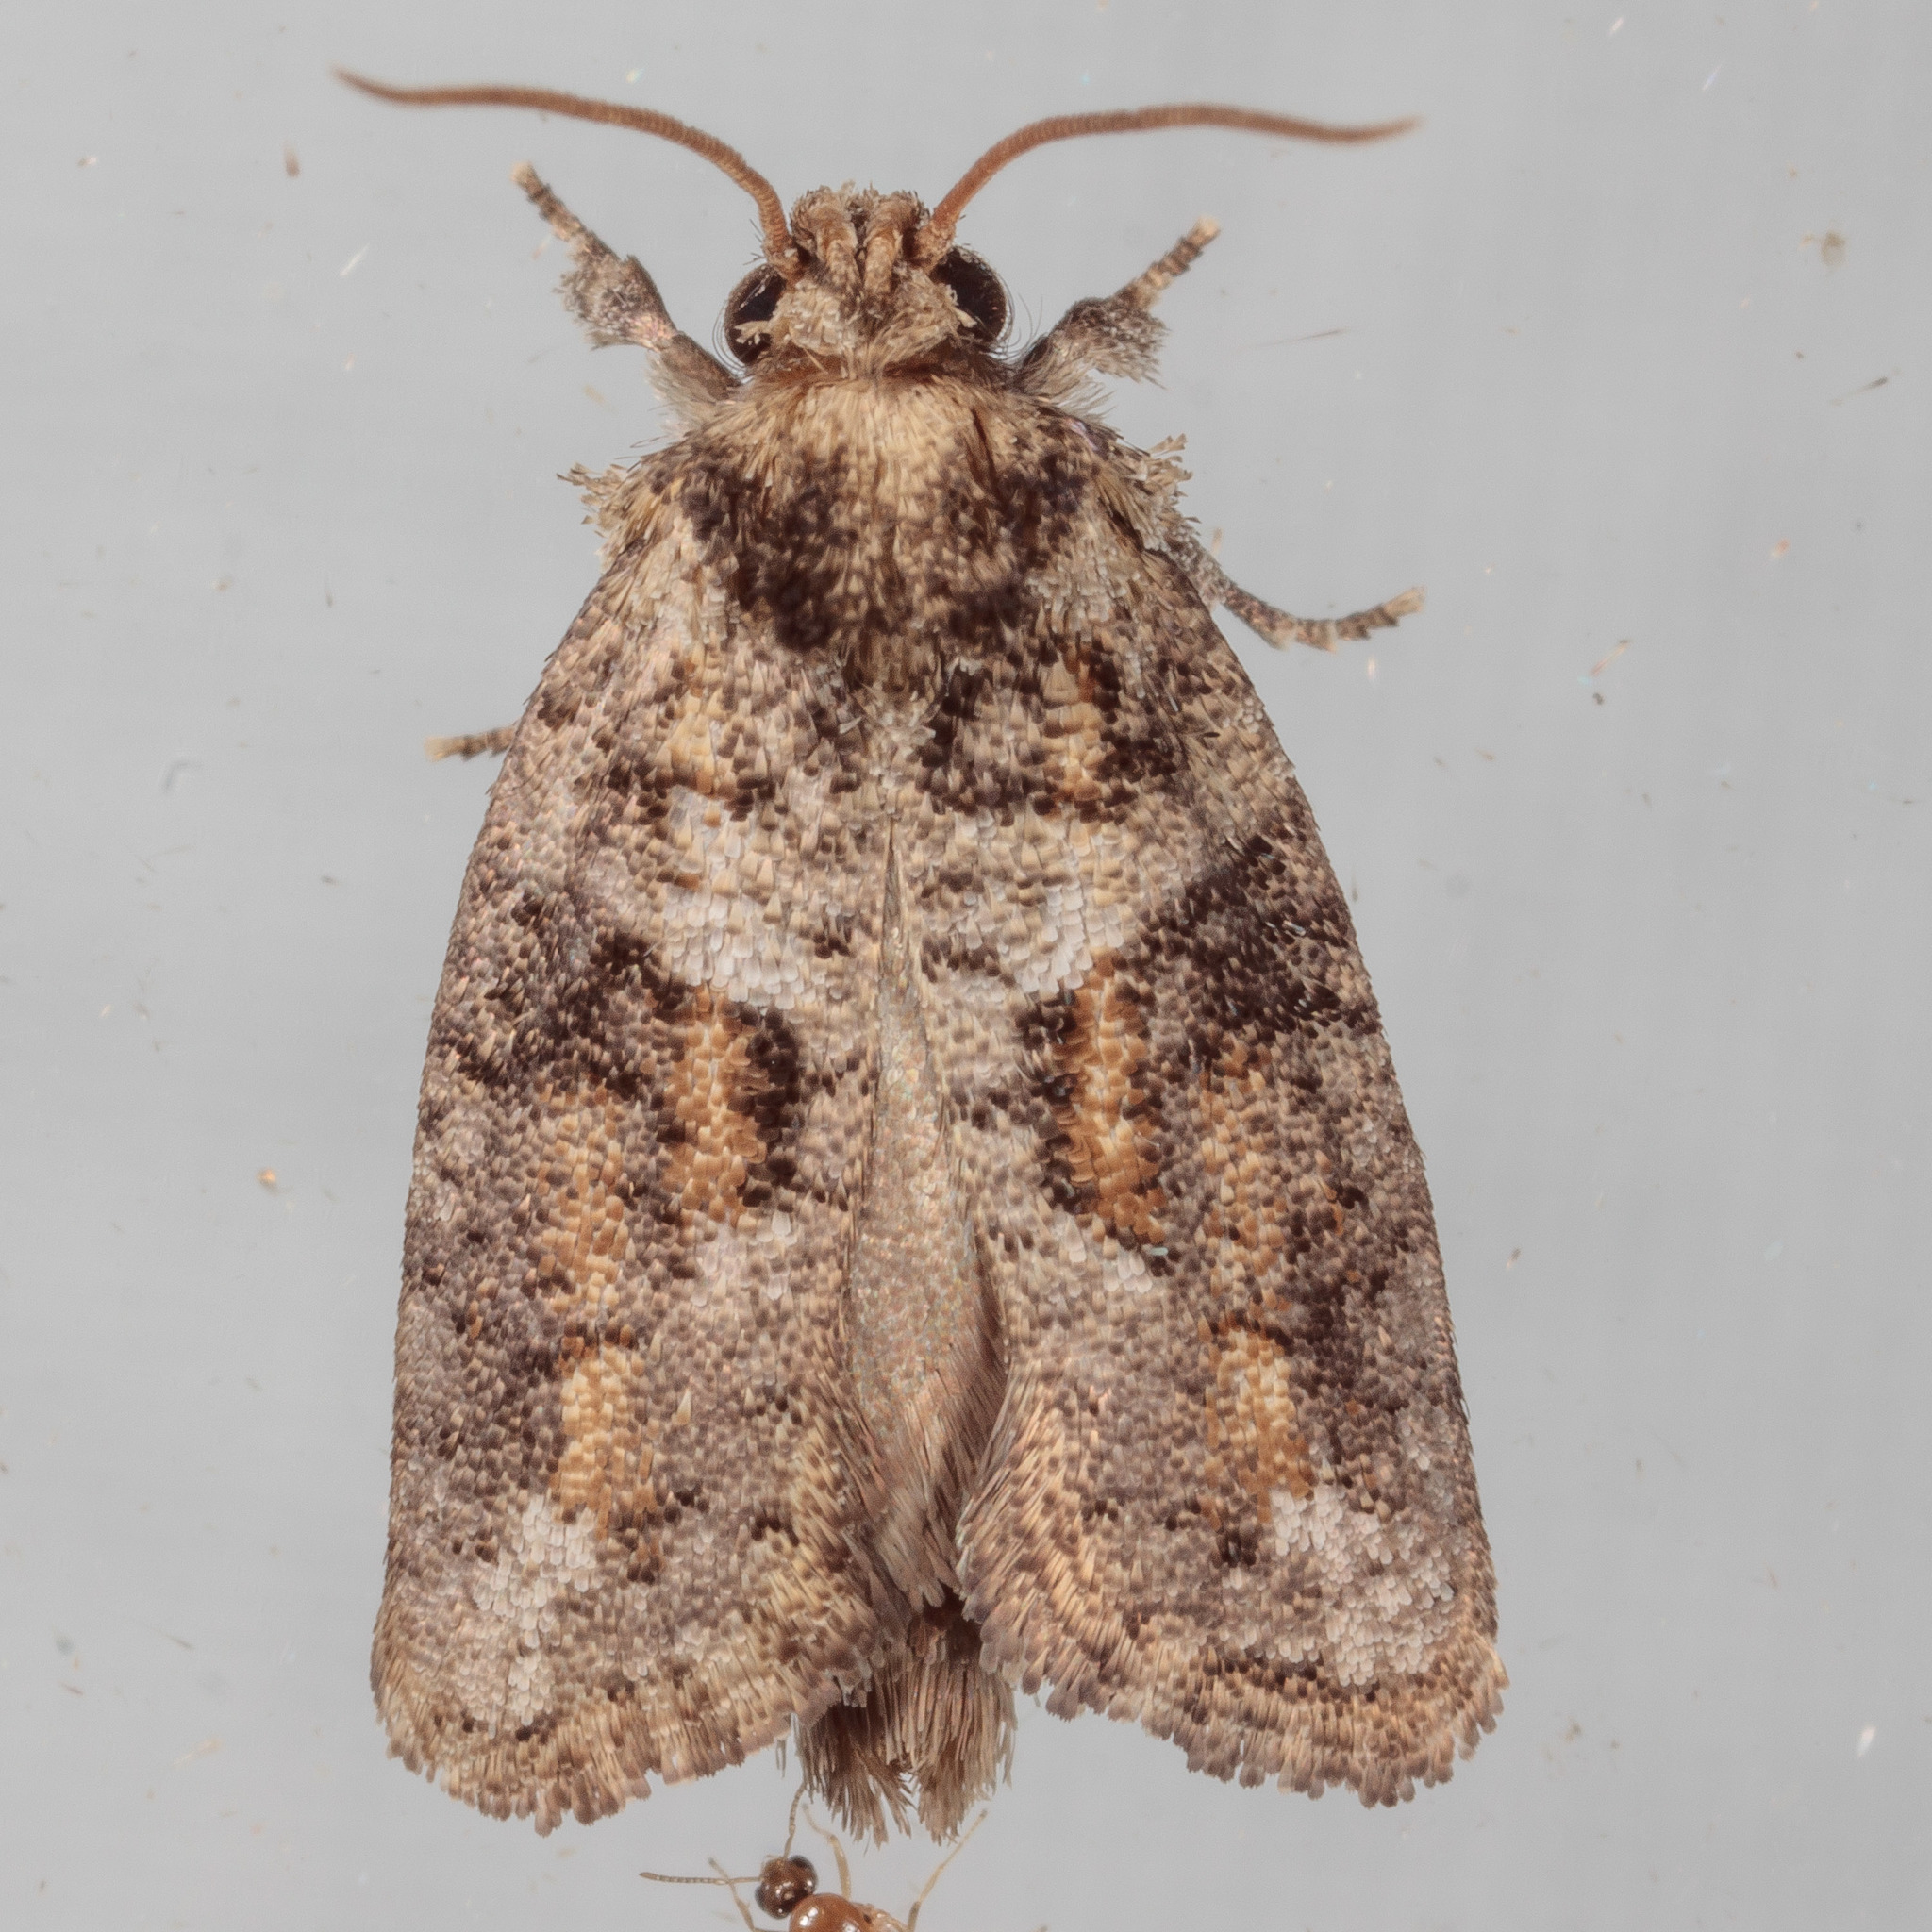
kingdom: Animalia
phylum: Arthropoda
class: Insecta
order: Lepidoptera
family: Tineidae
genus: Acrolophus
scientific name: Acrolophus piger
